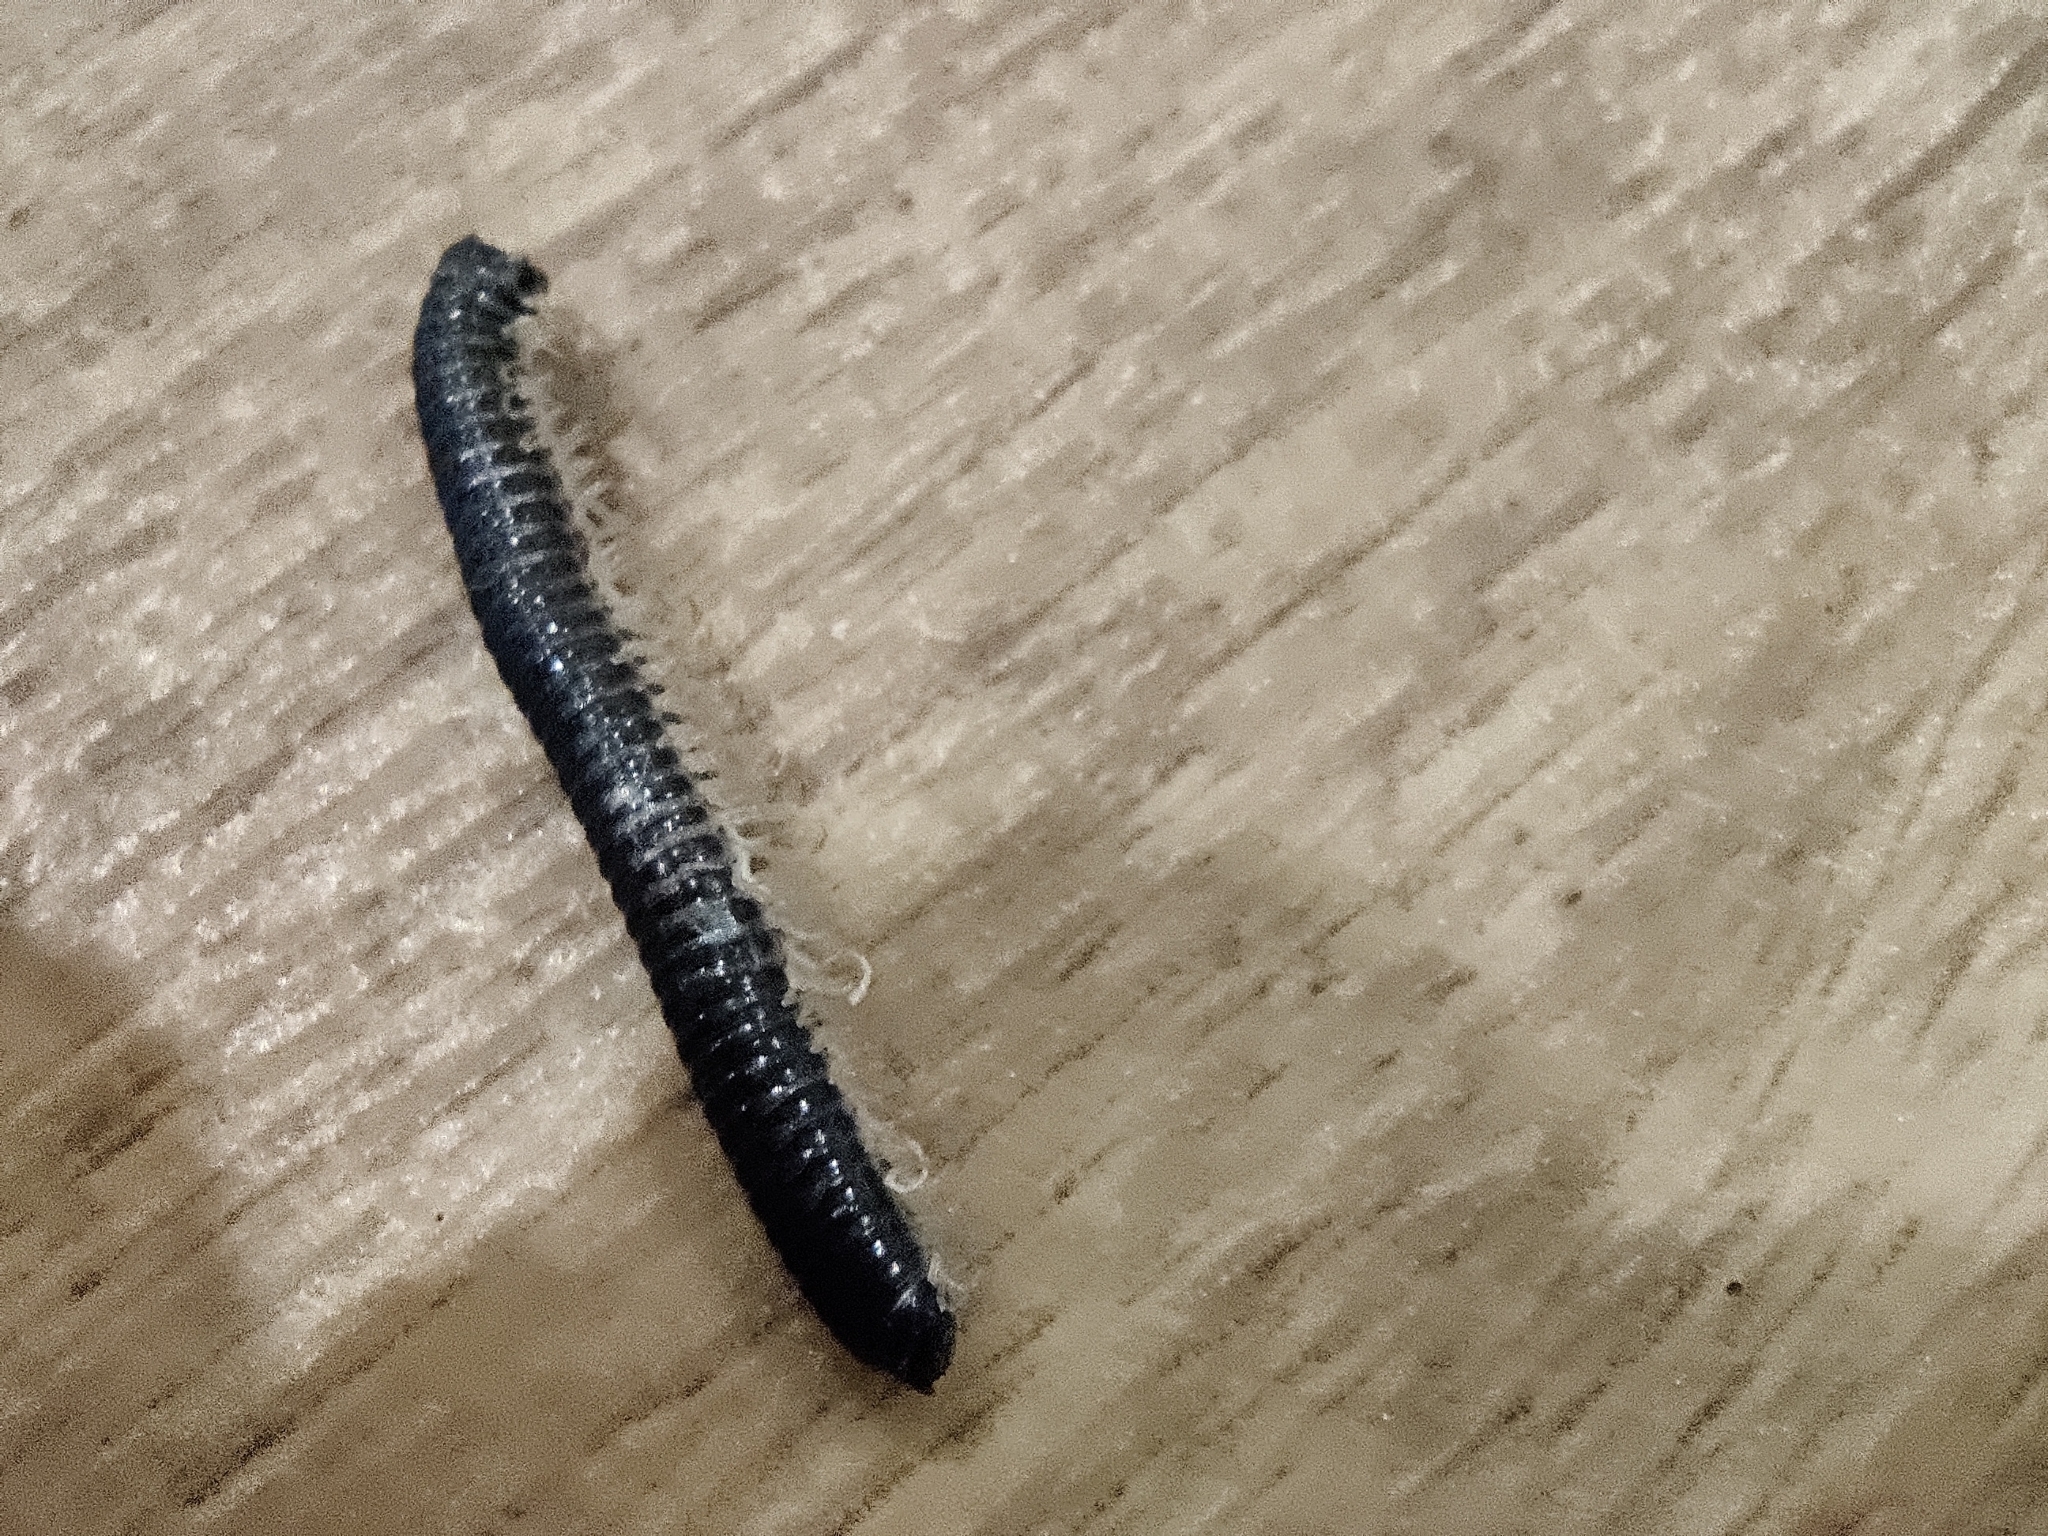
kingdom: Animalia
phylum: Arthropoda
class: Diplopoda
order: Julida
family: Julidae
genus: Tachypodoiulus
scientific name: Tachypodoiulus niger
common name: White-legged snake millipede
